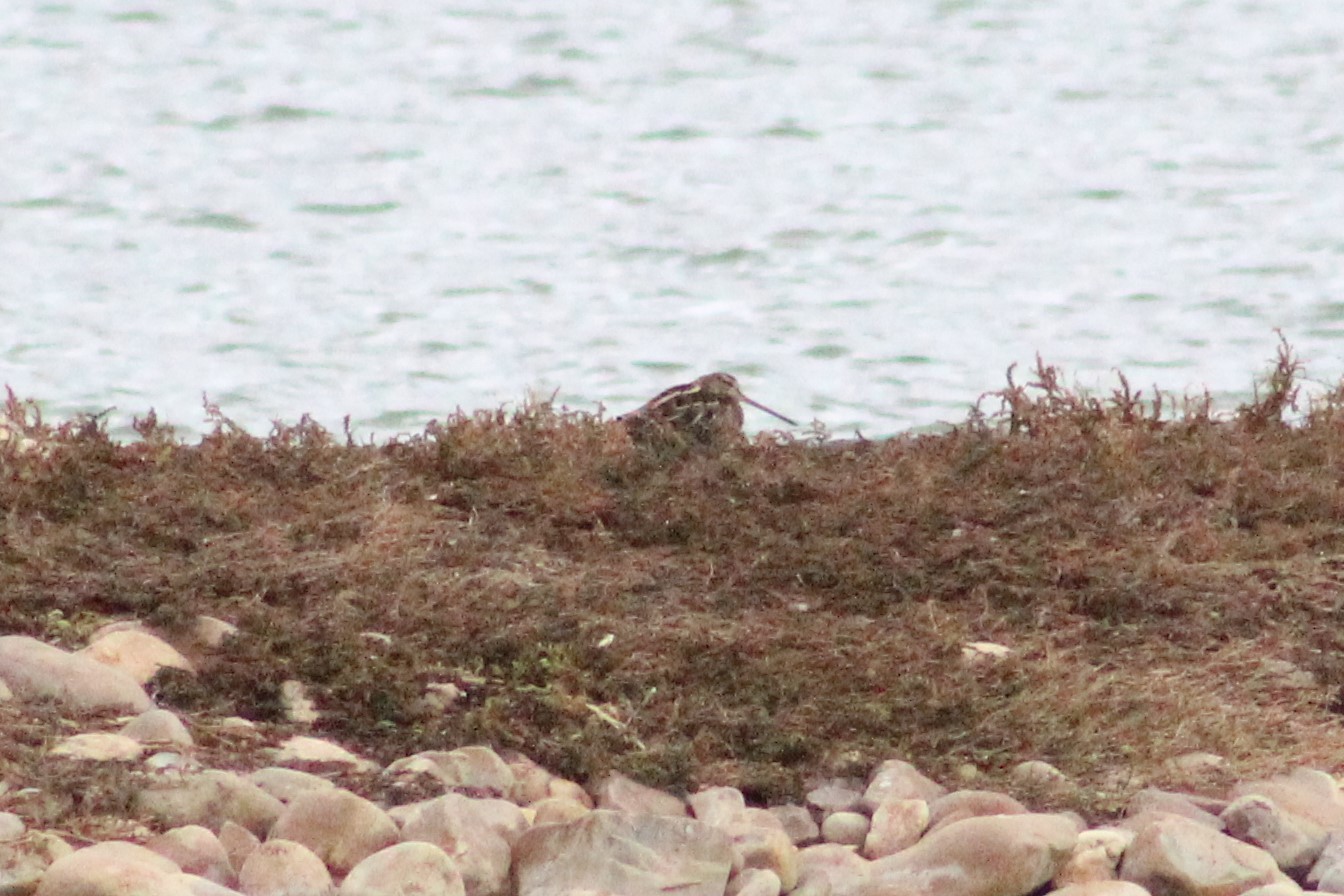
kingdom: Animalia
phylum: Chordata
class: Aves
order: Charadriiformes
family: Scolopacidae
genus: Gallinago
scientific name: Gallinago gallinago
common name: Common snipe
